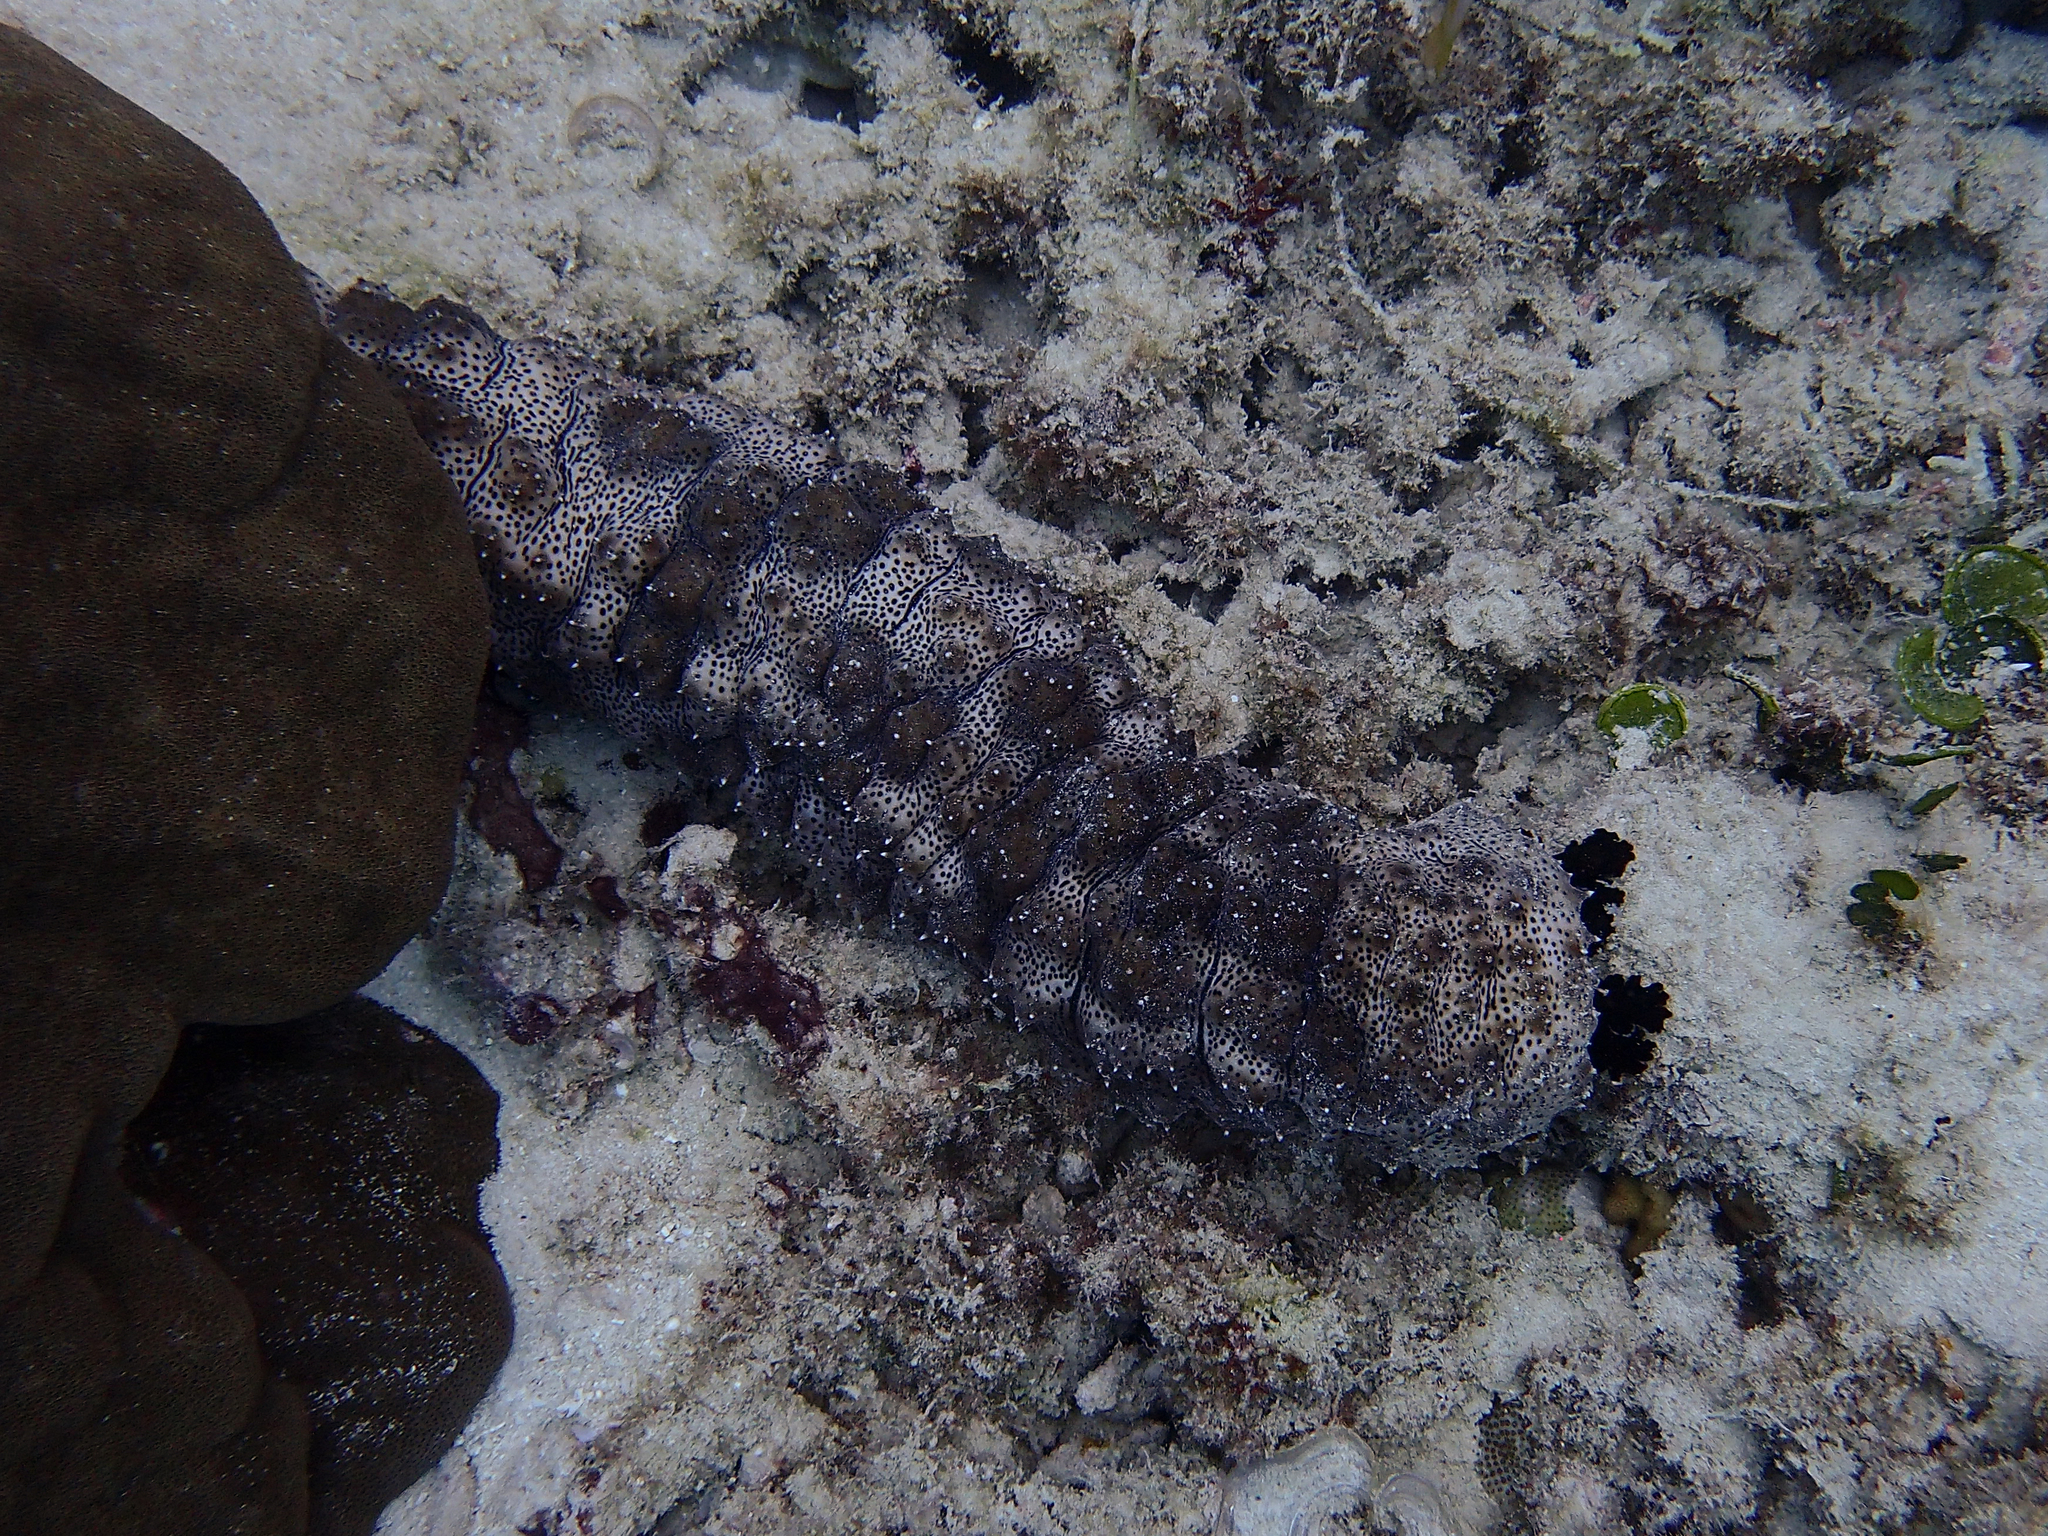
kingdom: Animalia
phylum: Echinodermata
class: Holothuroidea
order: Holothuriida
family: Holothuriidae
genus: Pearsonothuria
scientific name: Pearsonothuria graeffei
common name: Blackspotted sea cucumber
